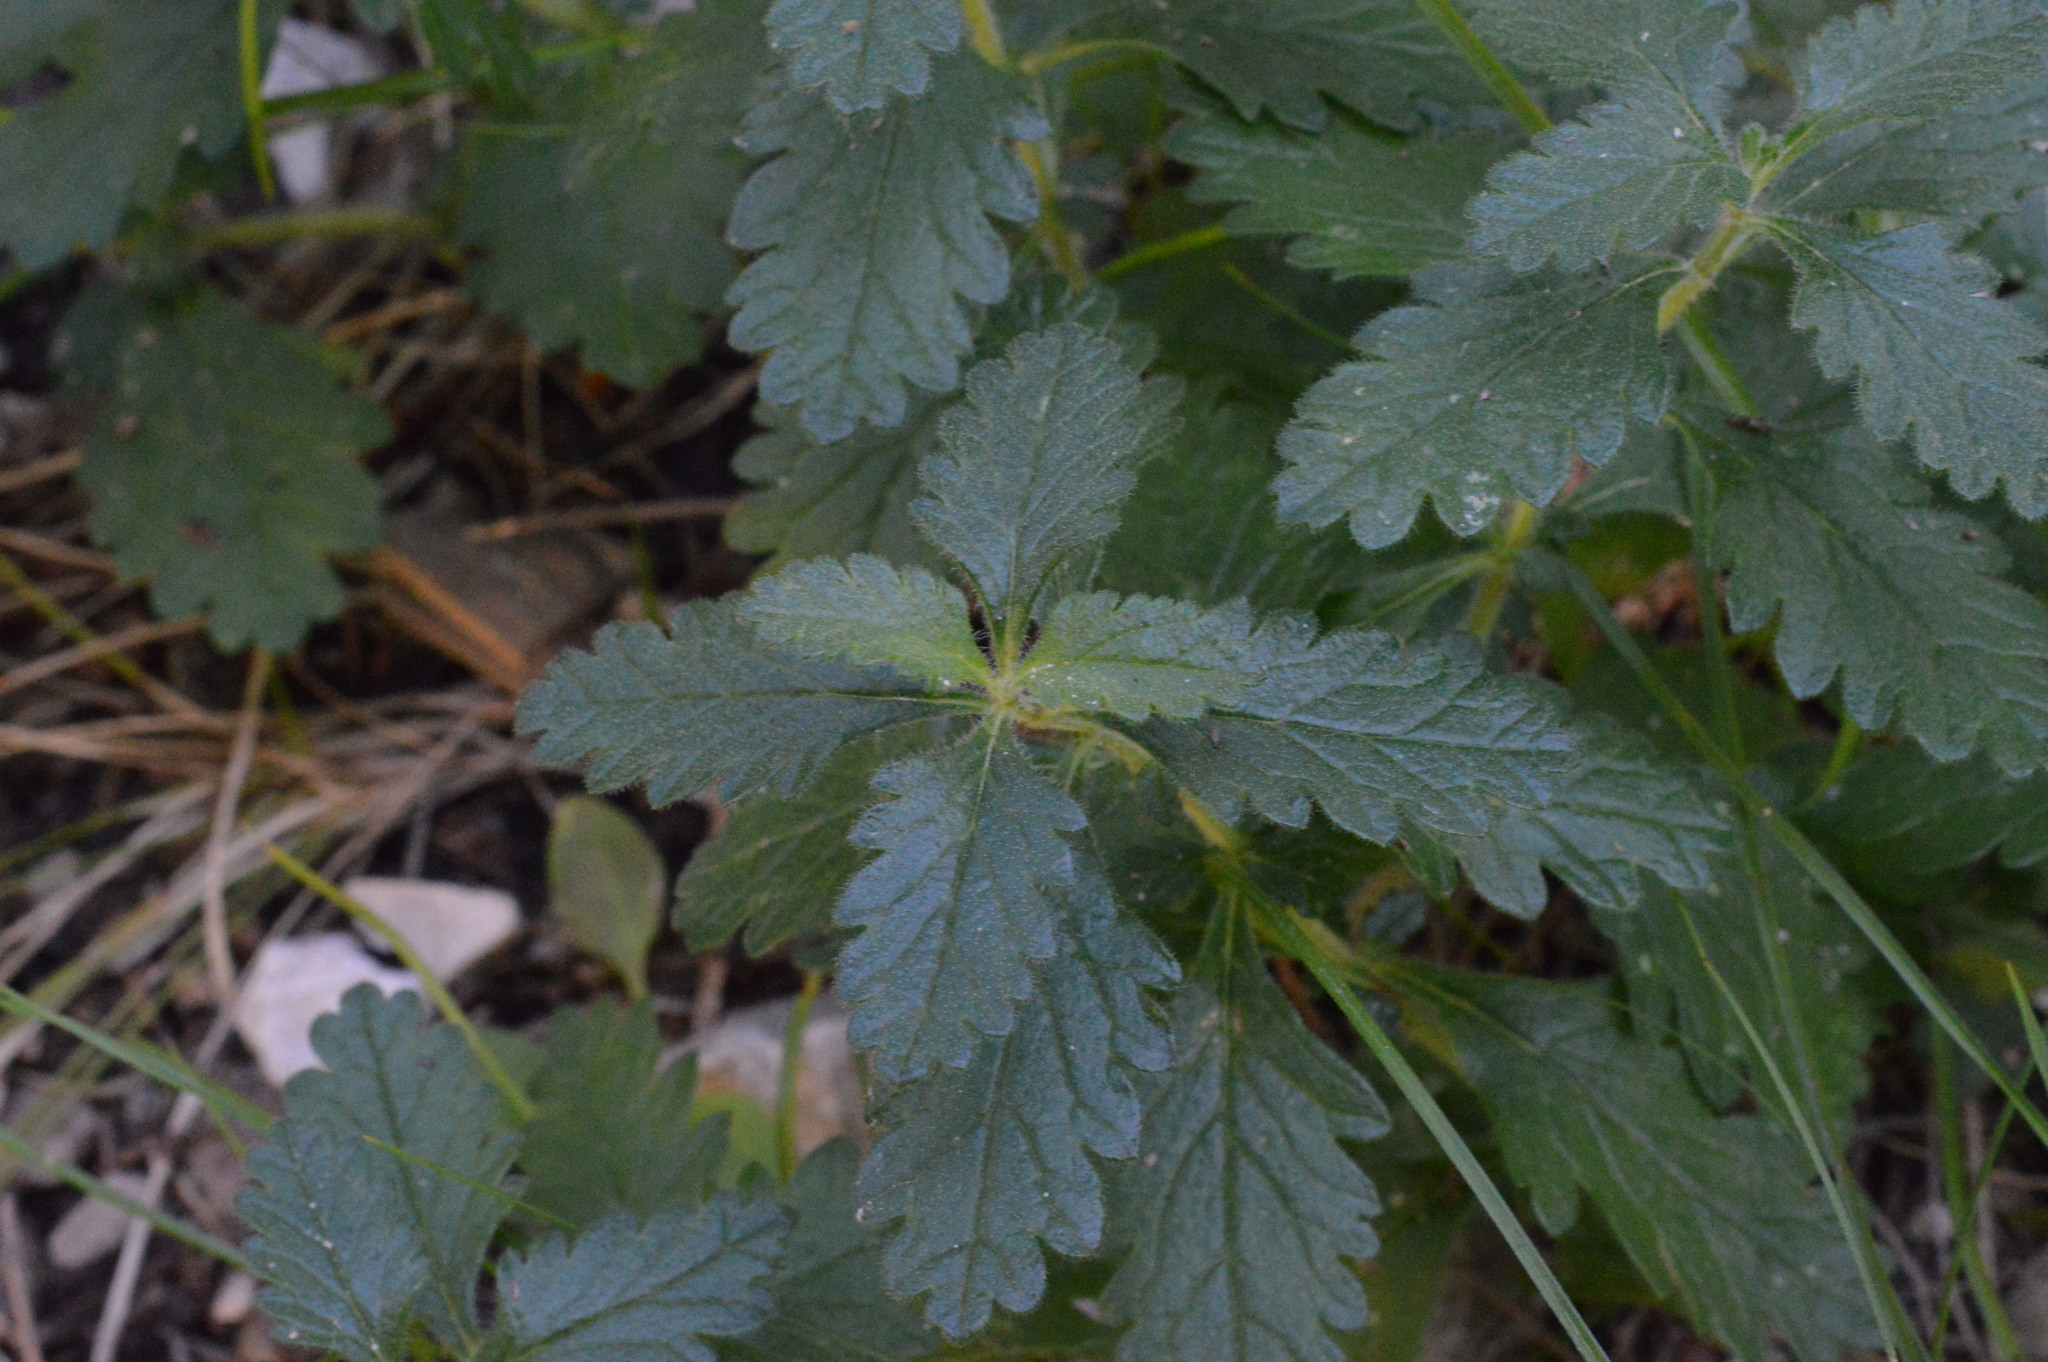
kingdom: Plantae
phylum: Tracheophyta
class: Magnoliopsida
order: Lamiales
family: Lamiaceae
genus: Teucrium
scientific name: Teucrium chamaedrys
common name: Wall germander
